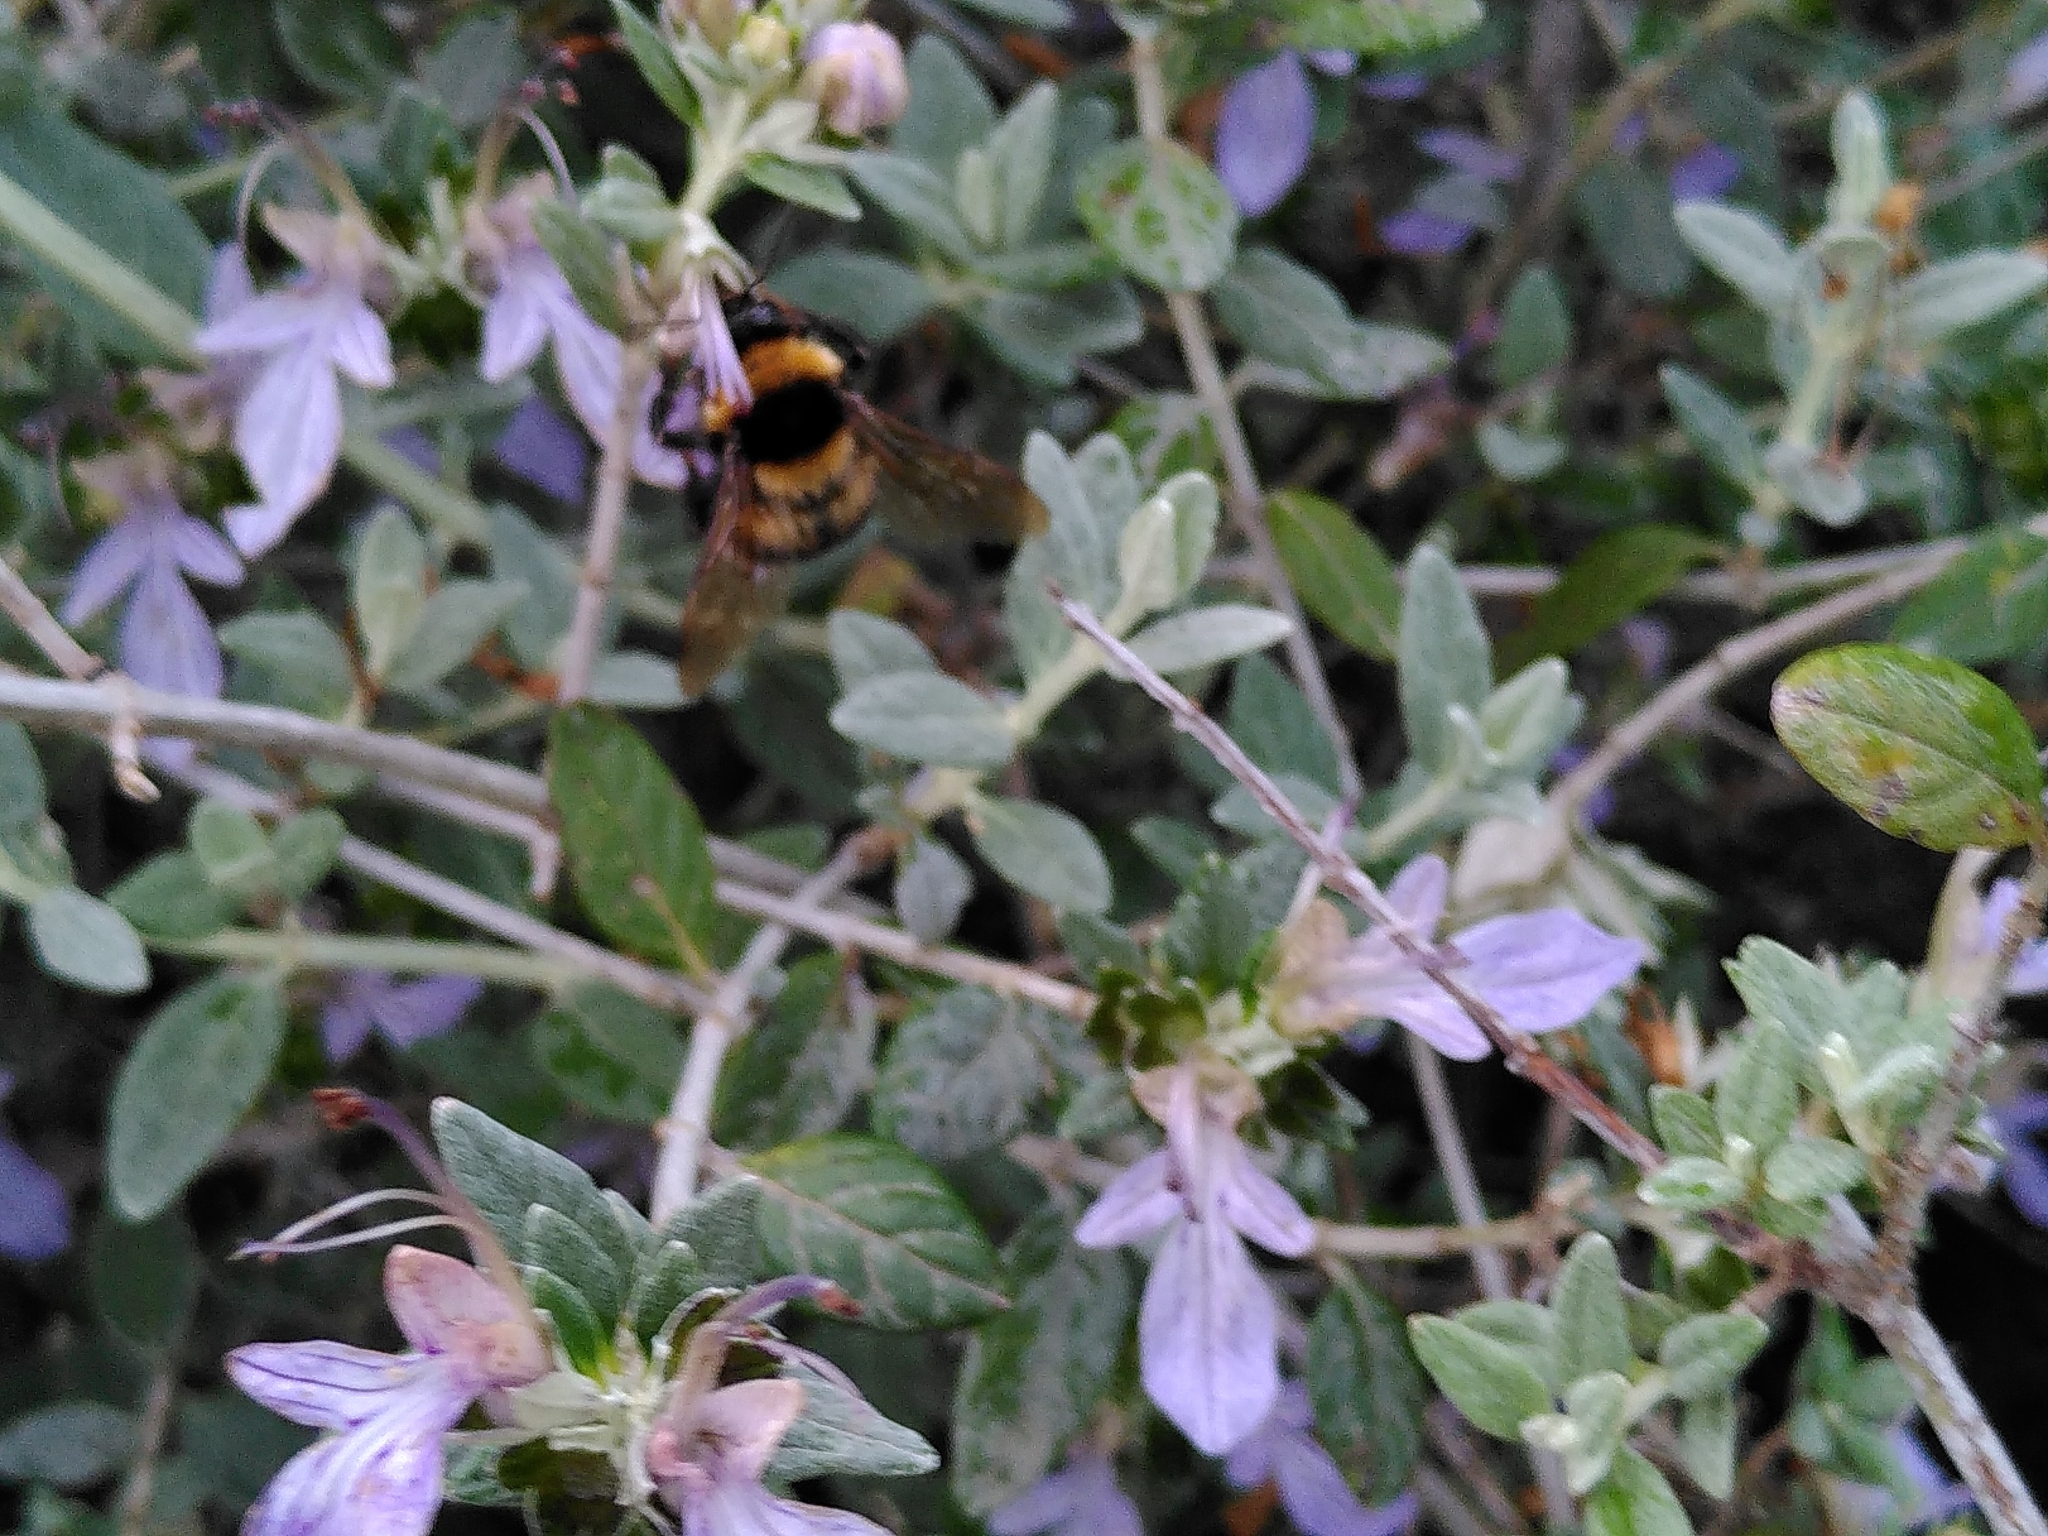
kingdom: Animalia
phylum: Arthropoda
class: Insecta
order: Hymenoptera
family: Apidae
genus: Bombus
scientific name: Bombus hortorum
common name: Garden bumblebee
